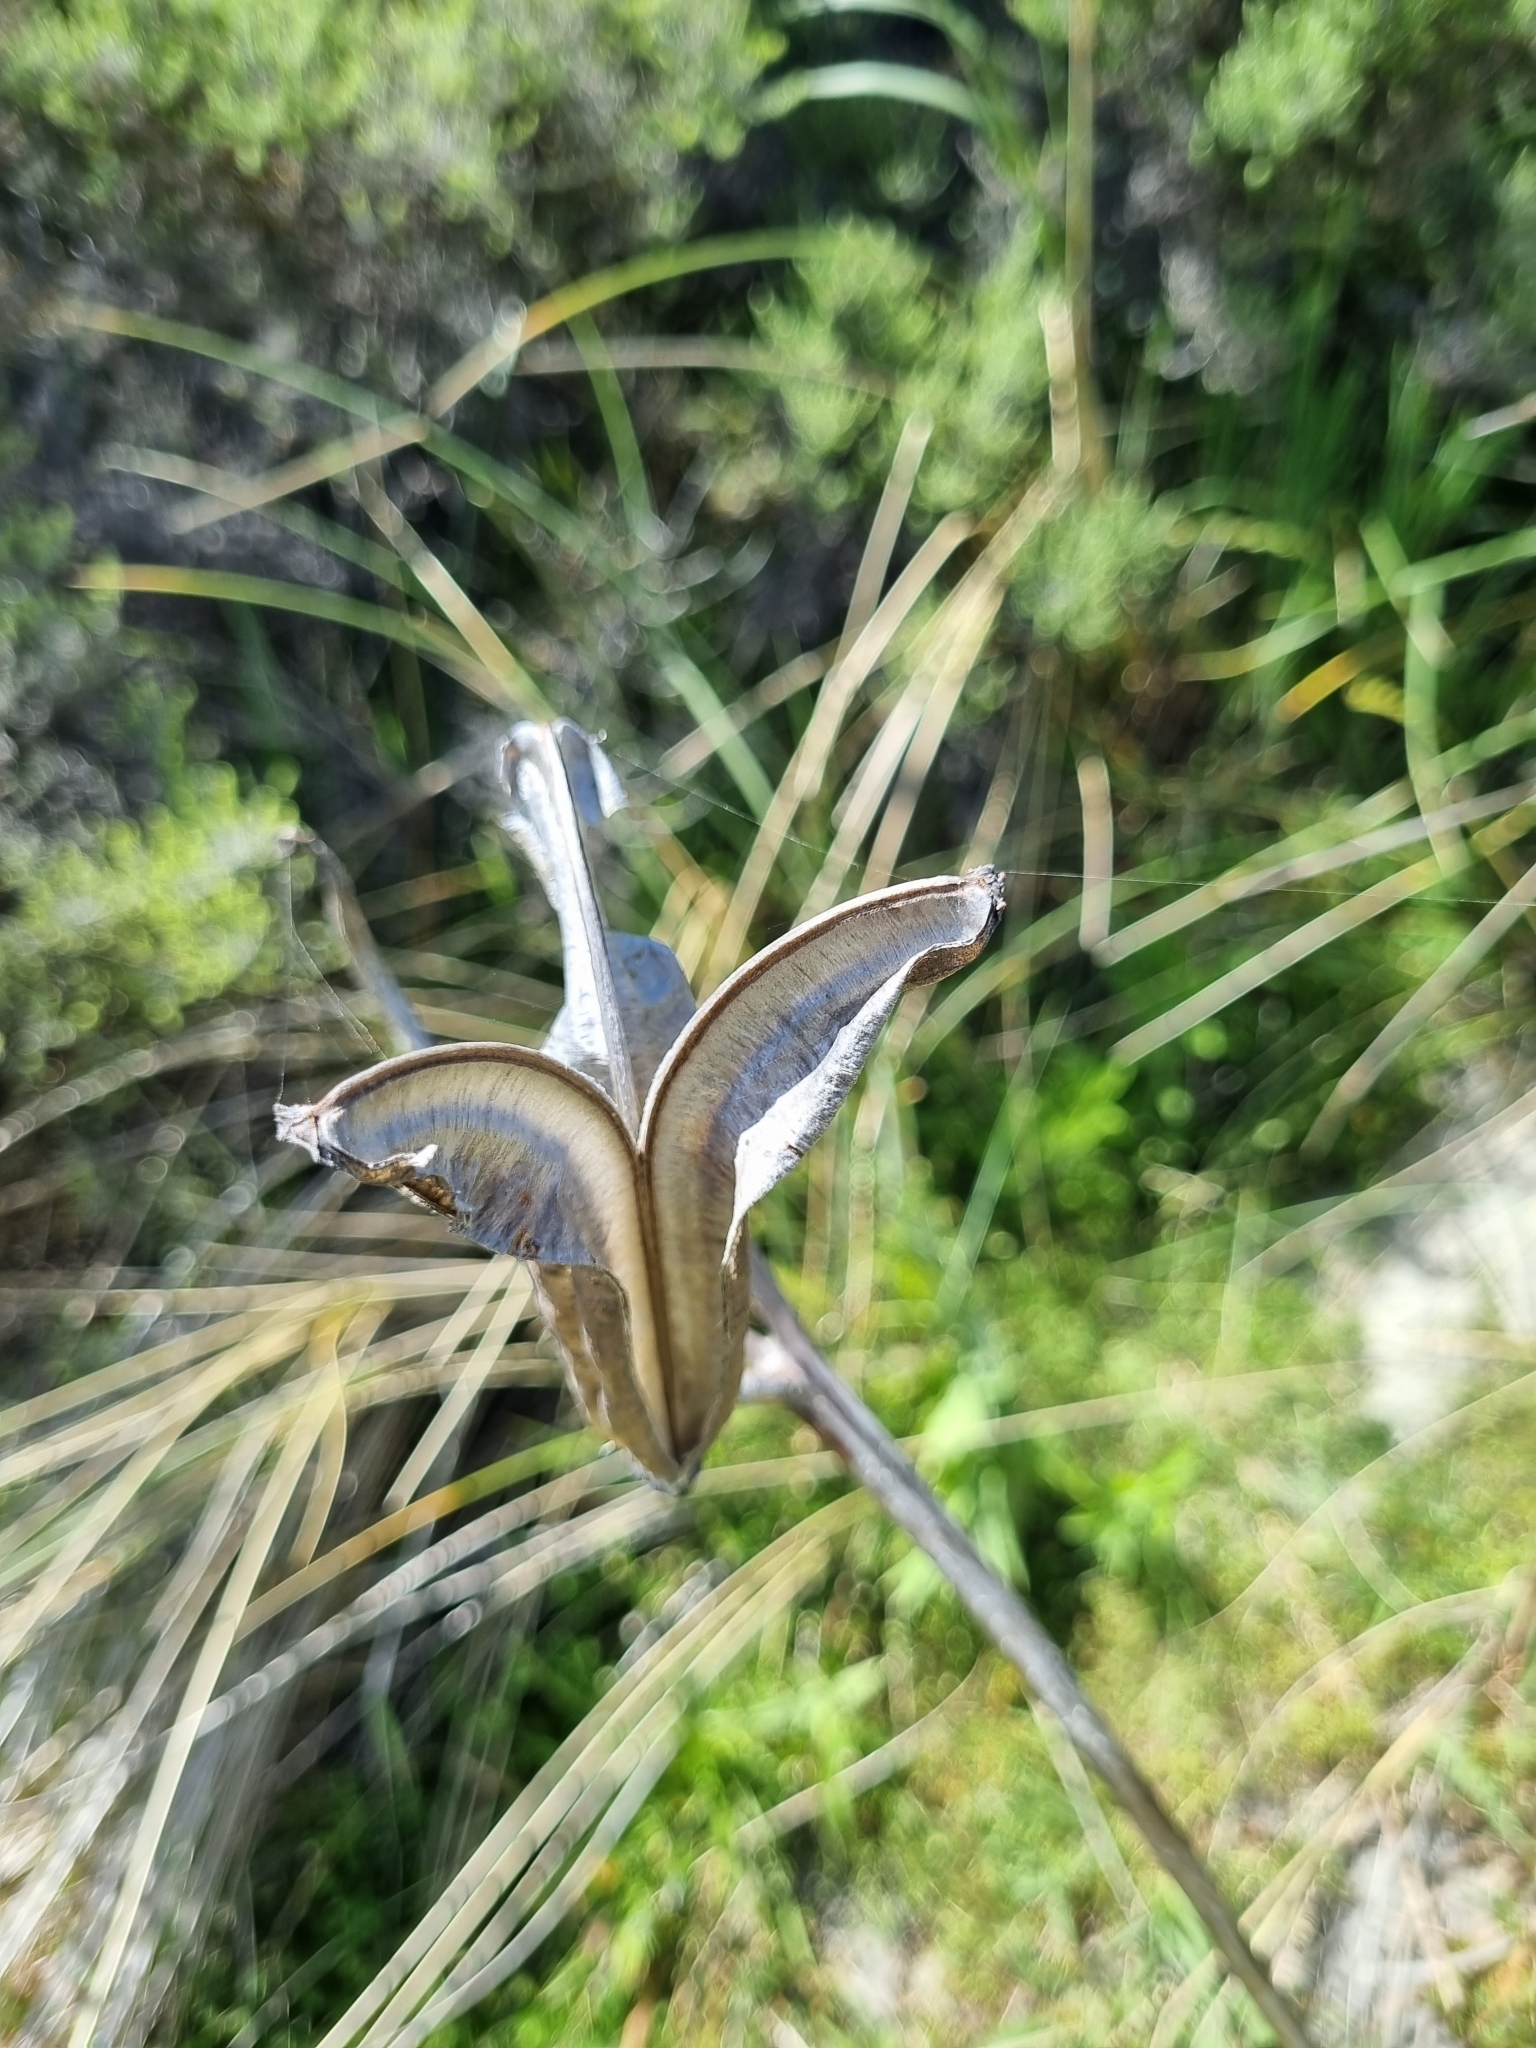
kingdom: Plantae
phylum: Tracheophyta
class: Liliopsida
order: Liliales
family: Liliaceae
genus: Lilium
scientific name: Lilium formosanum
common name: Formosa lily
